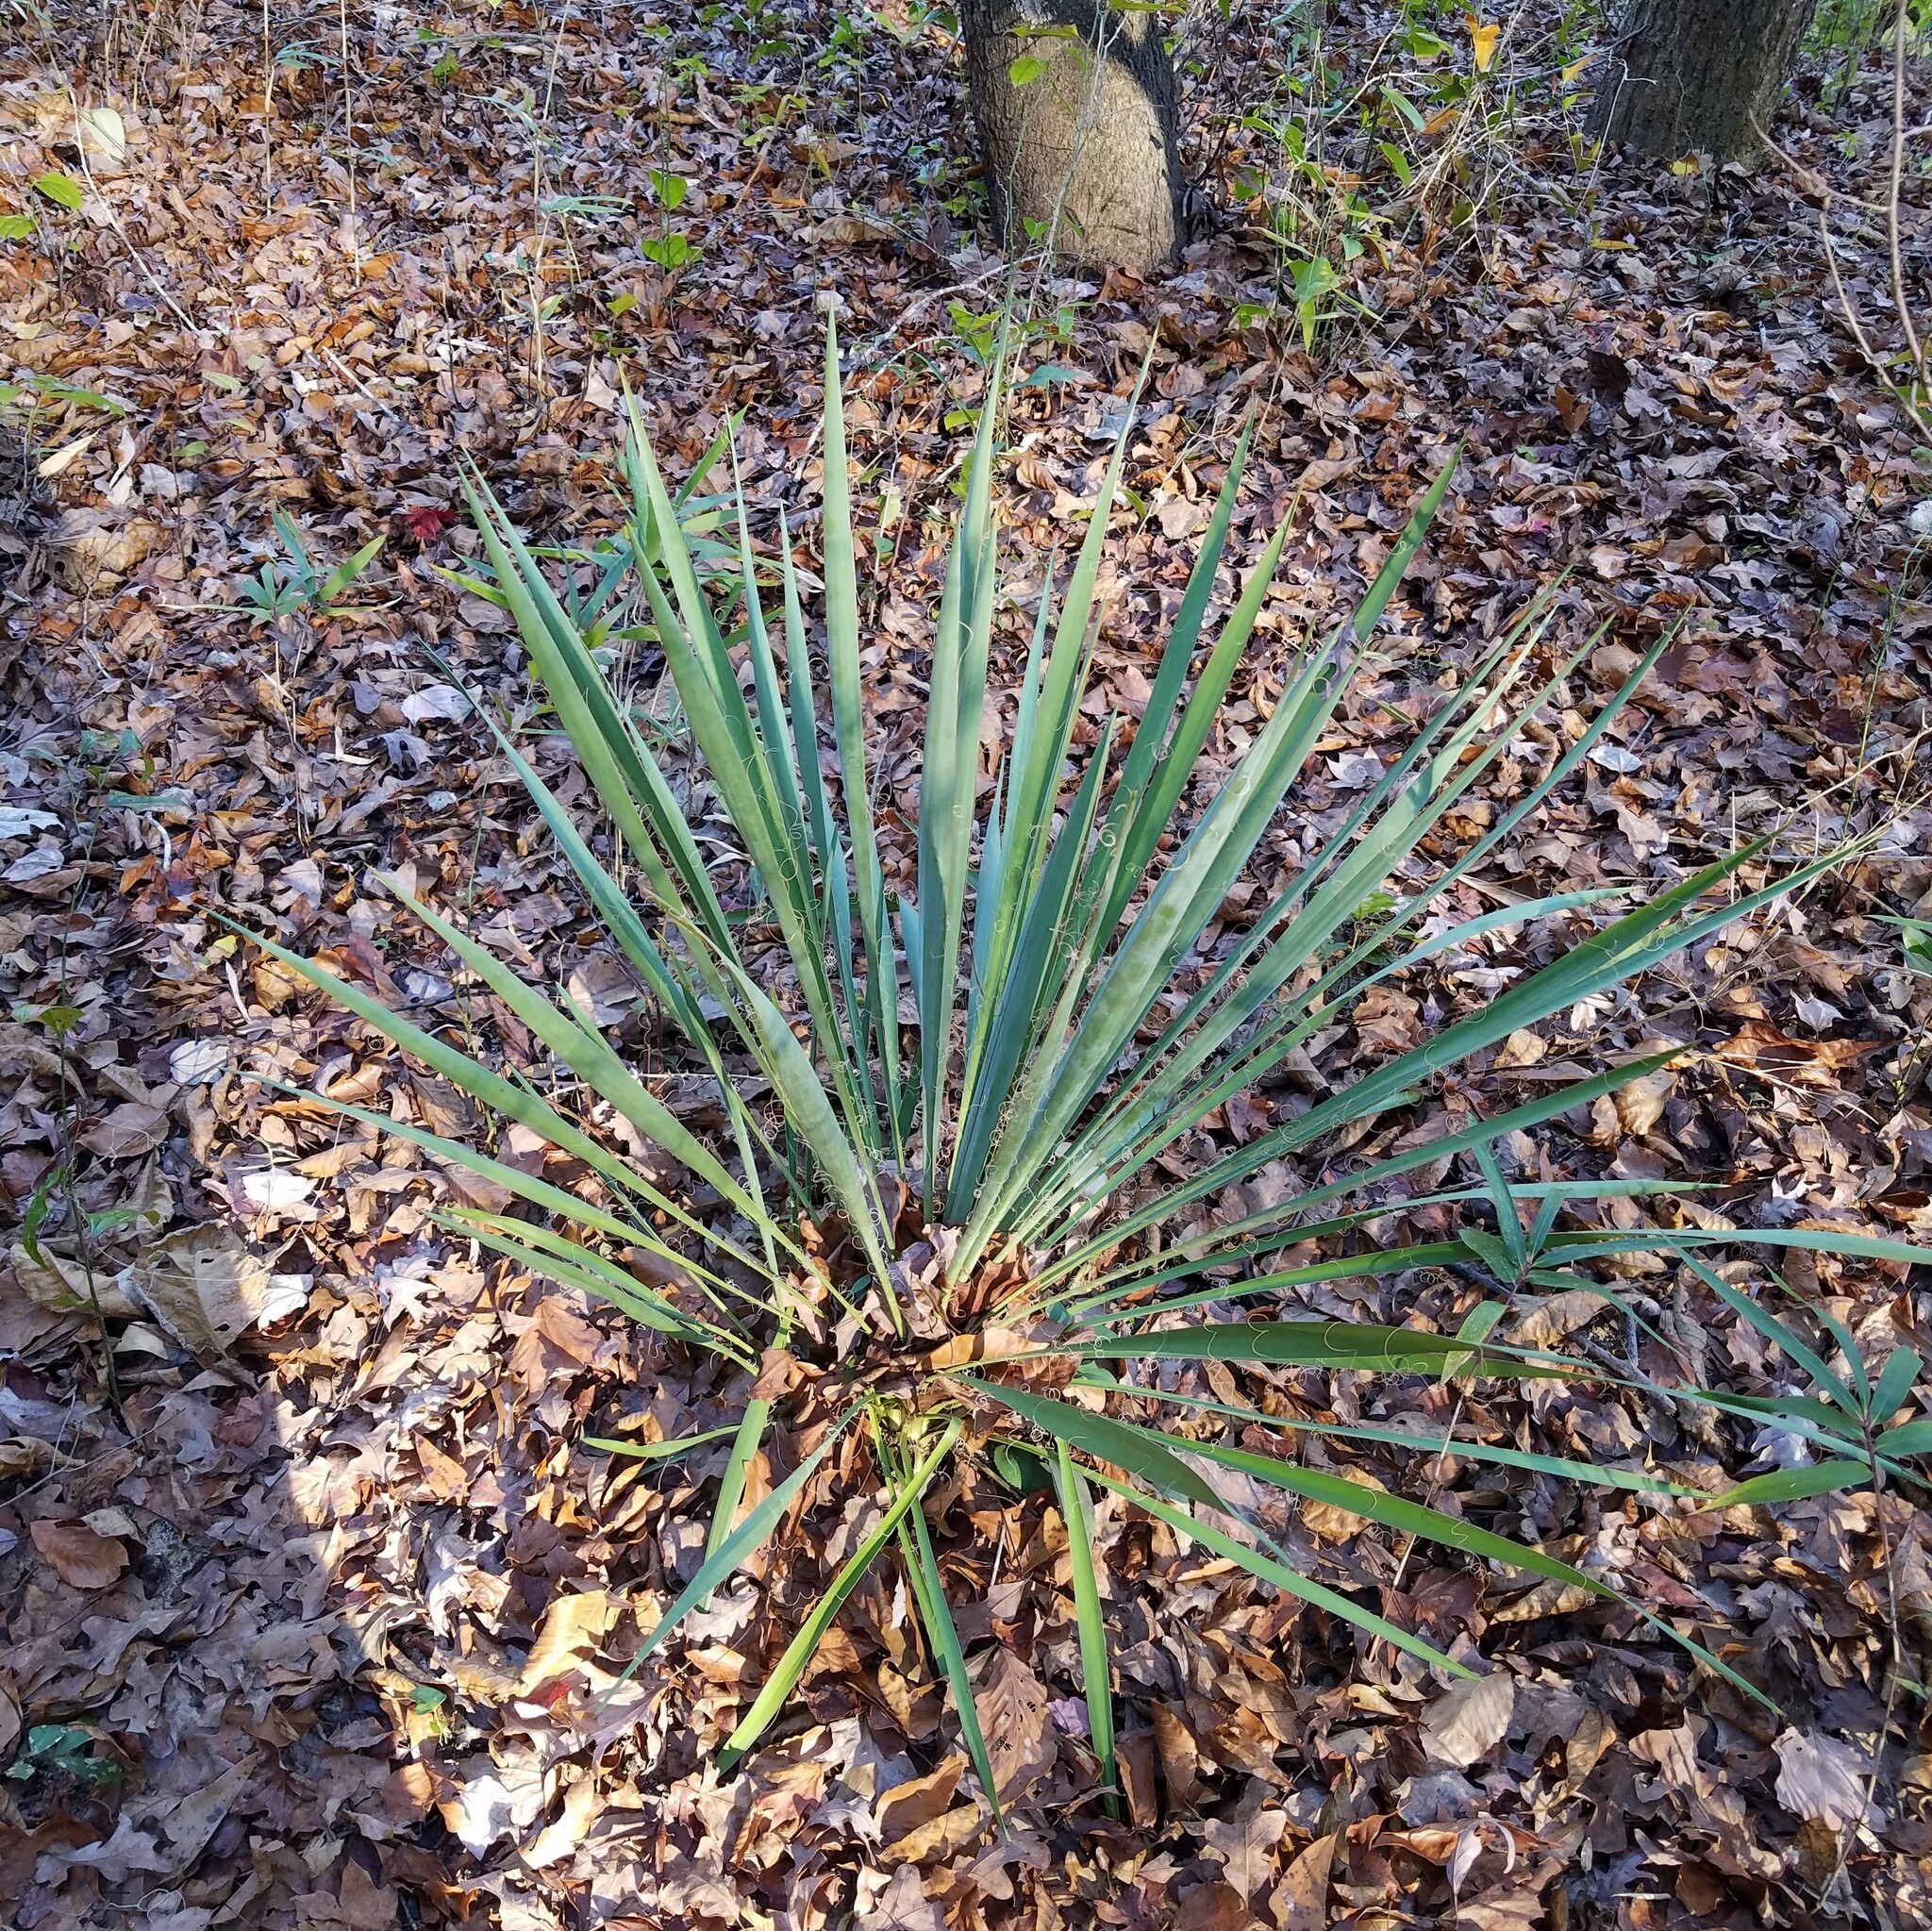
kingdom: Plantae
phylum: Tracheophyta
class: Liliopsida
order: Asparagales
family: Asparagaceae
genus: Yucca
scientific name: Yucca filamentosa
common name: Adam's-needle
